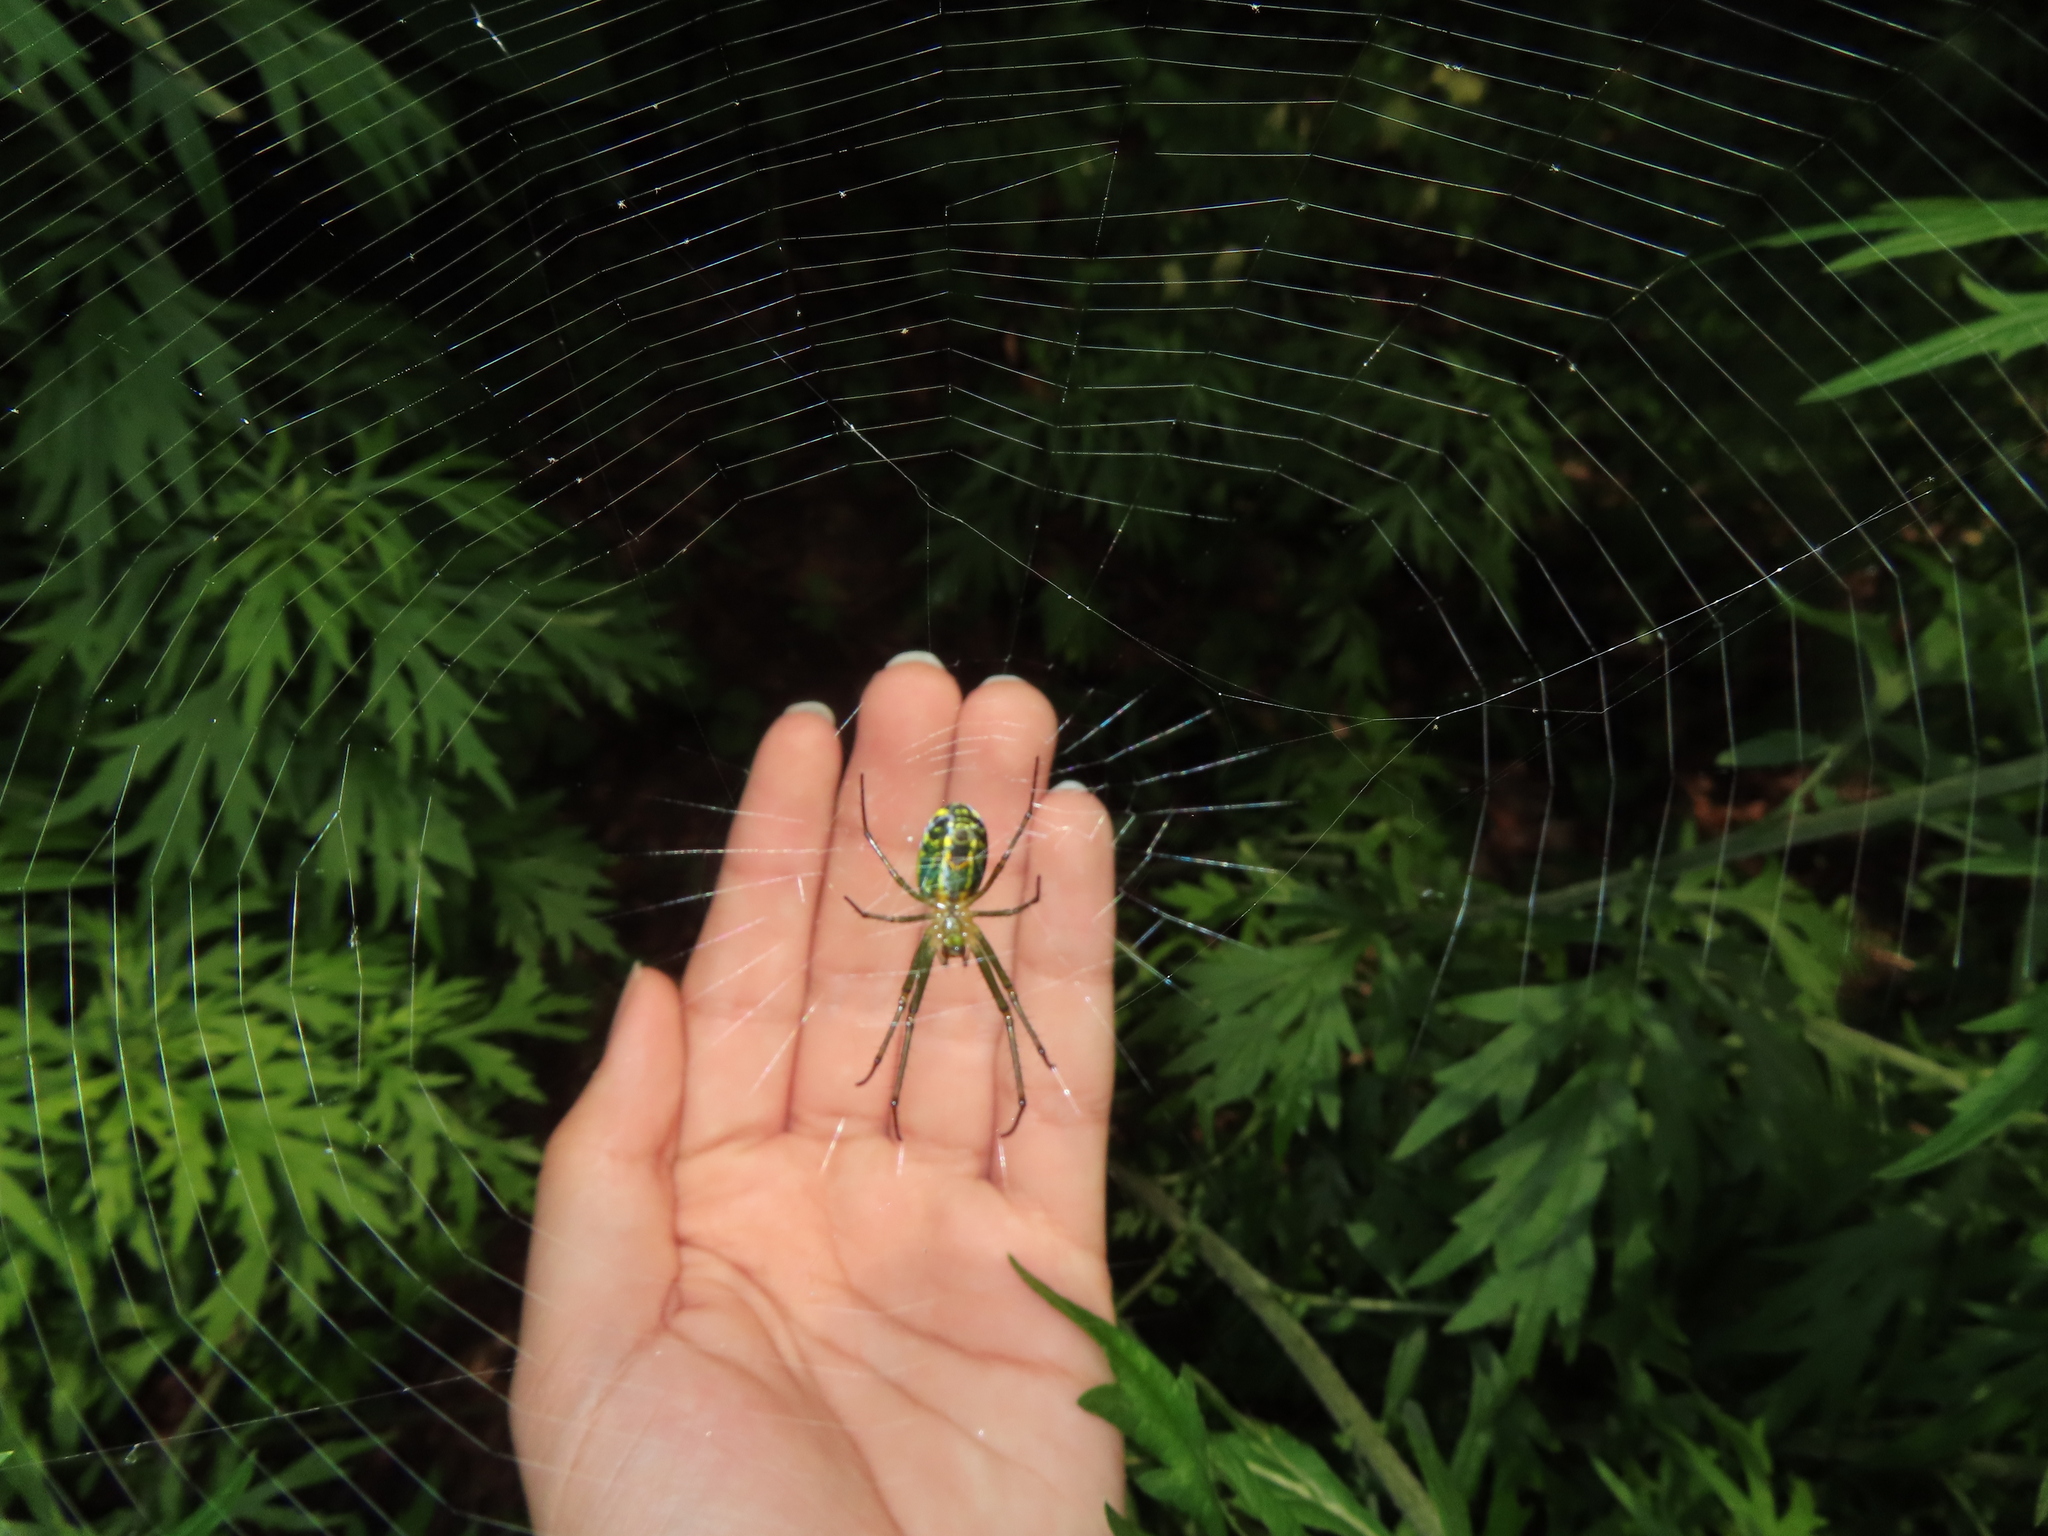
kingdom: Animalia
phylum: Arthropoda
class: Arachnida
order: Araneae
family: Tetragnathidae
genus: Leucauge
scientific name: Leucauge venusta
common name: Longjawed orb weavers
